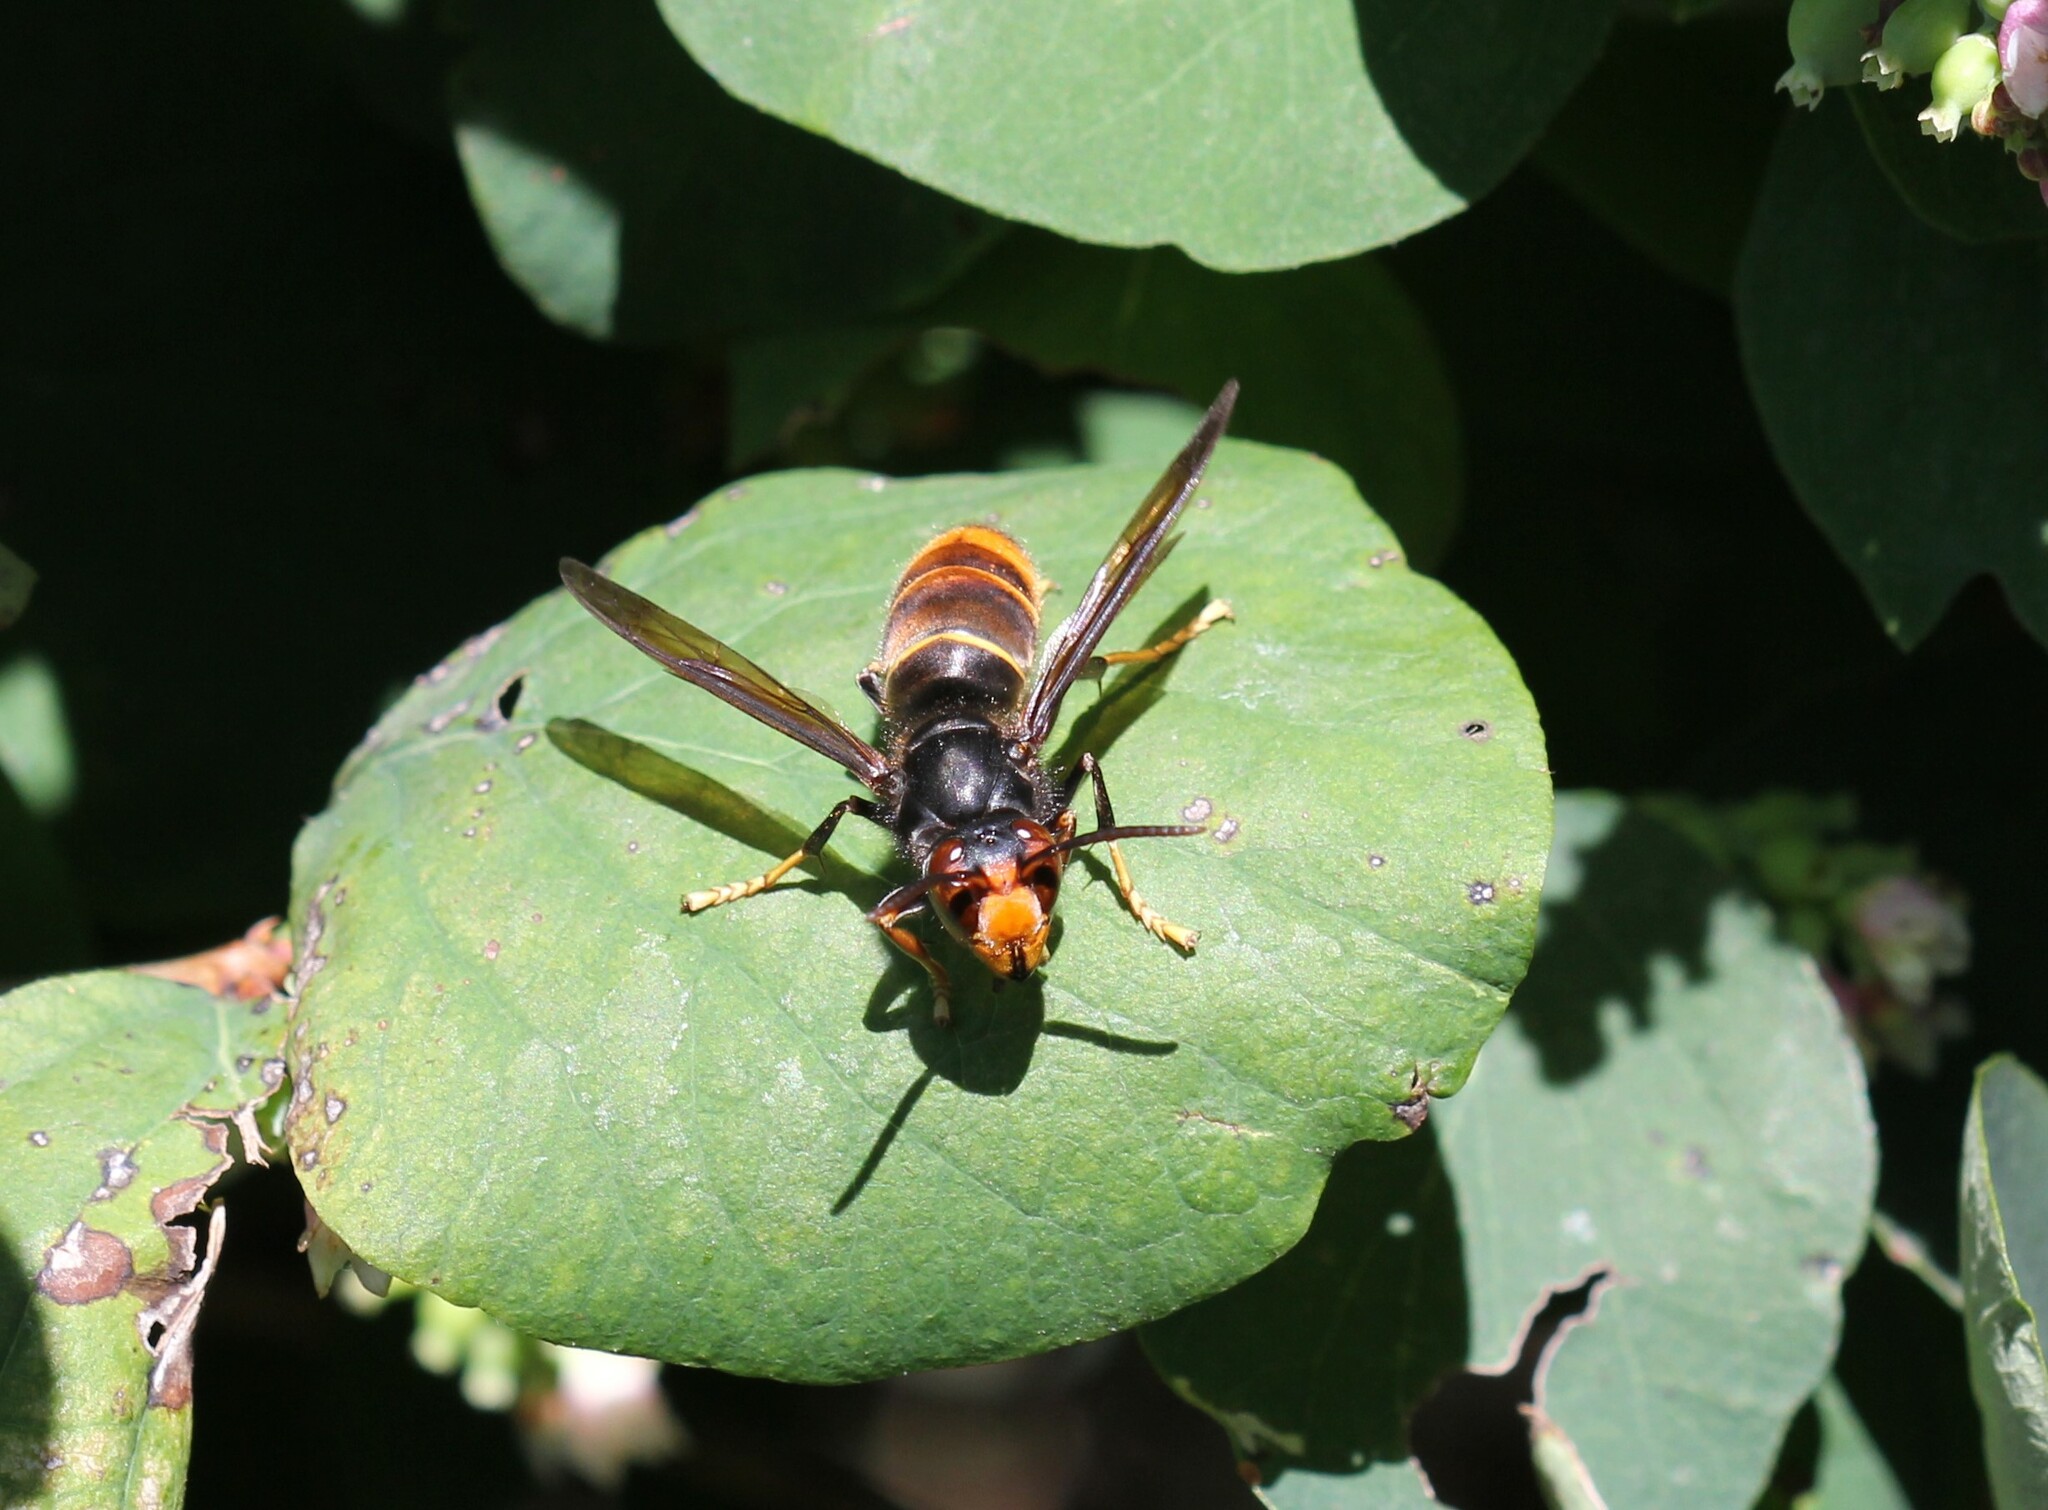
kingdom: Animalia
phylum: Arthropoda
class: Insecta
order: Hymenoptera
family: Vespidae
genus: Vespa
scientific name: Vespa velutina
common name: Asian hornet
